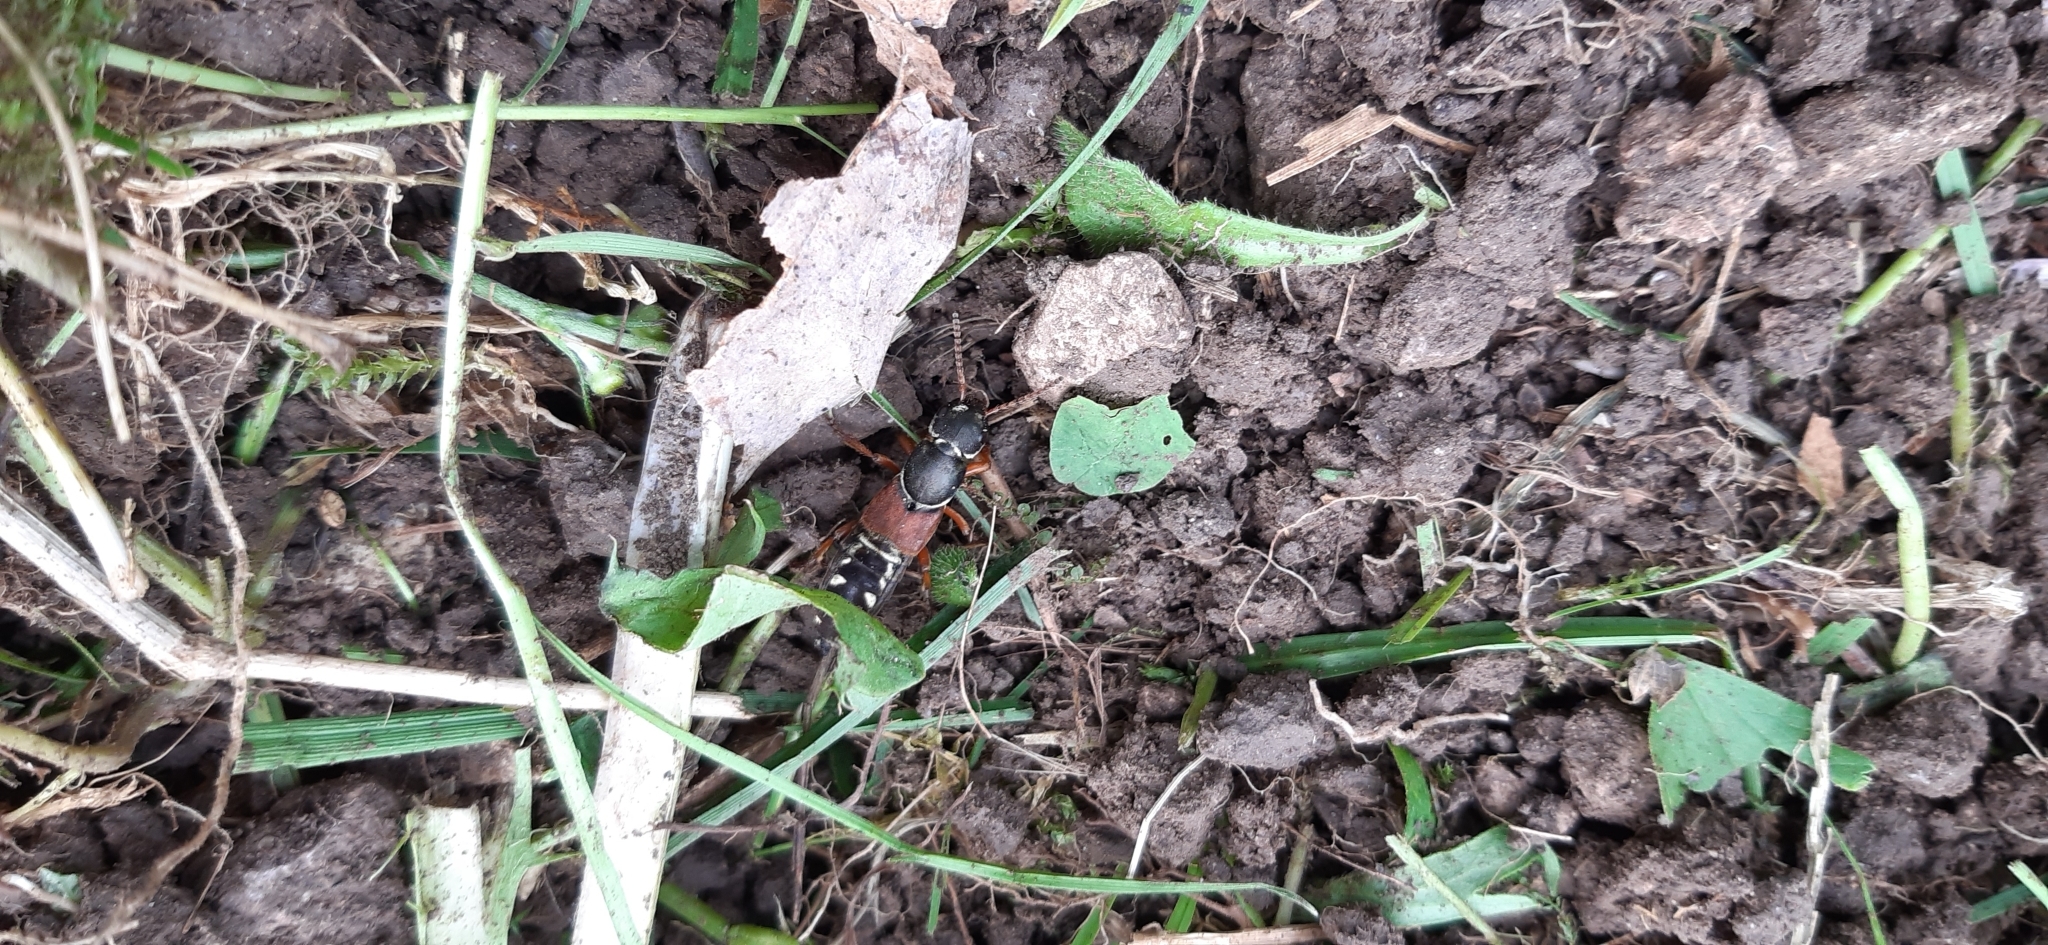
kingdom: Animalia
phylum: Arthropoda
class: Insecta
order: Coleoptera
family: Staphylinidae
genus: Staphylinus
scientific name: Staphylinus caesareus
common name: Staph beetle
